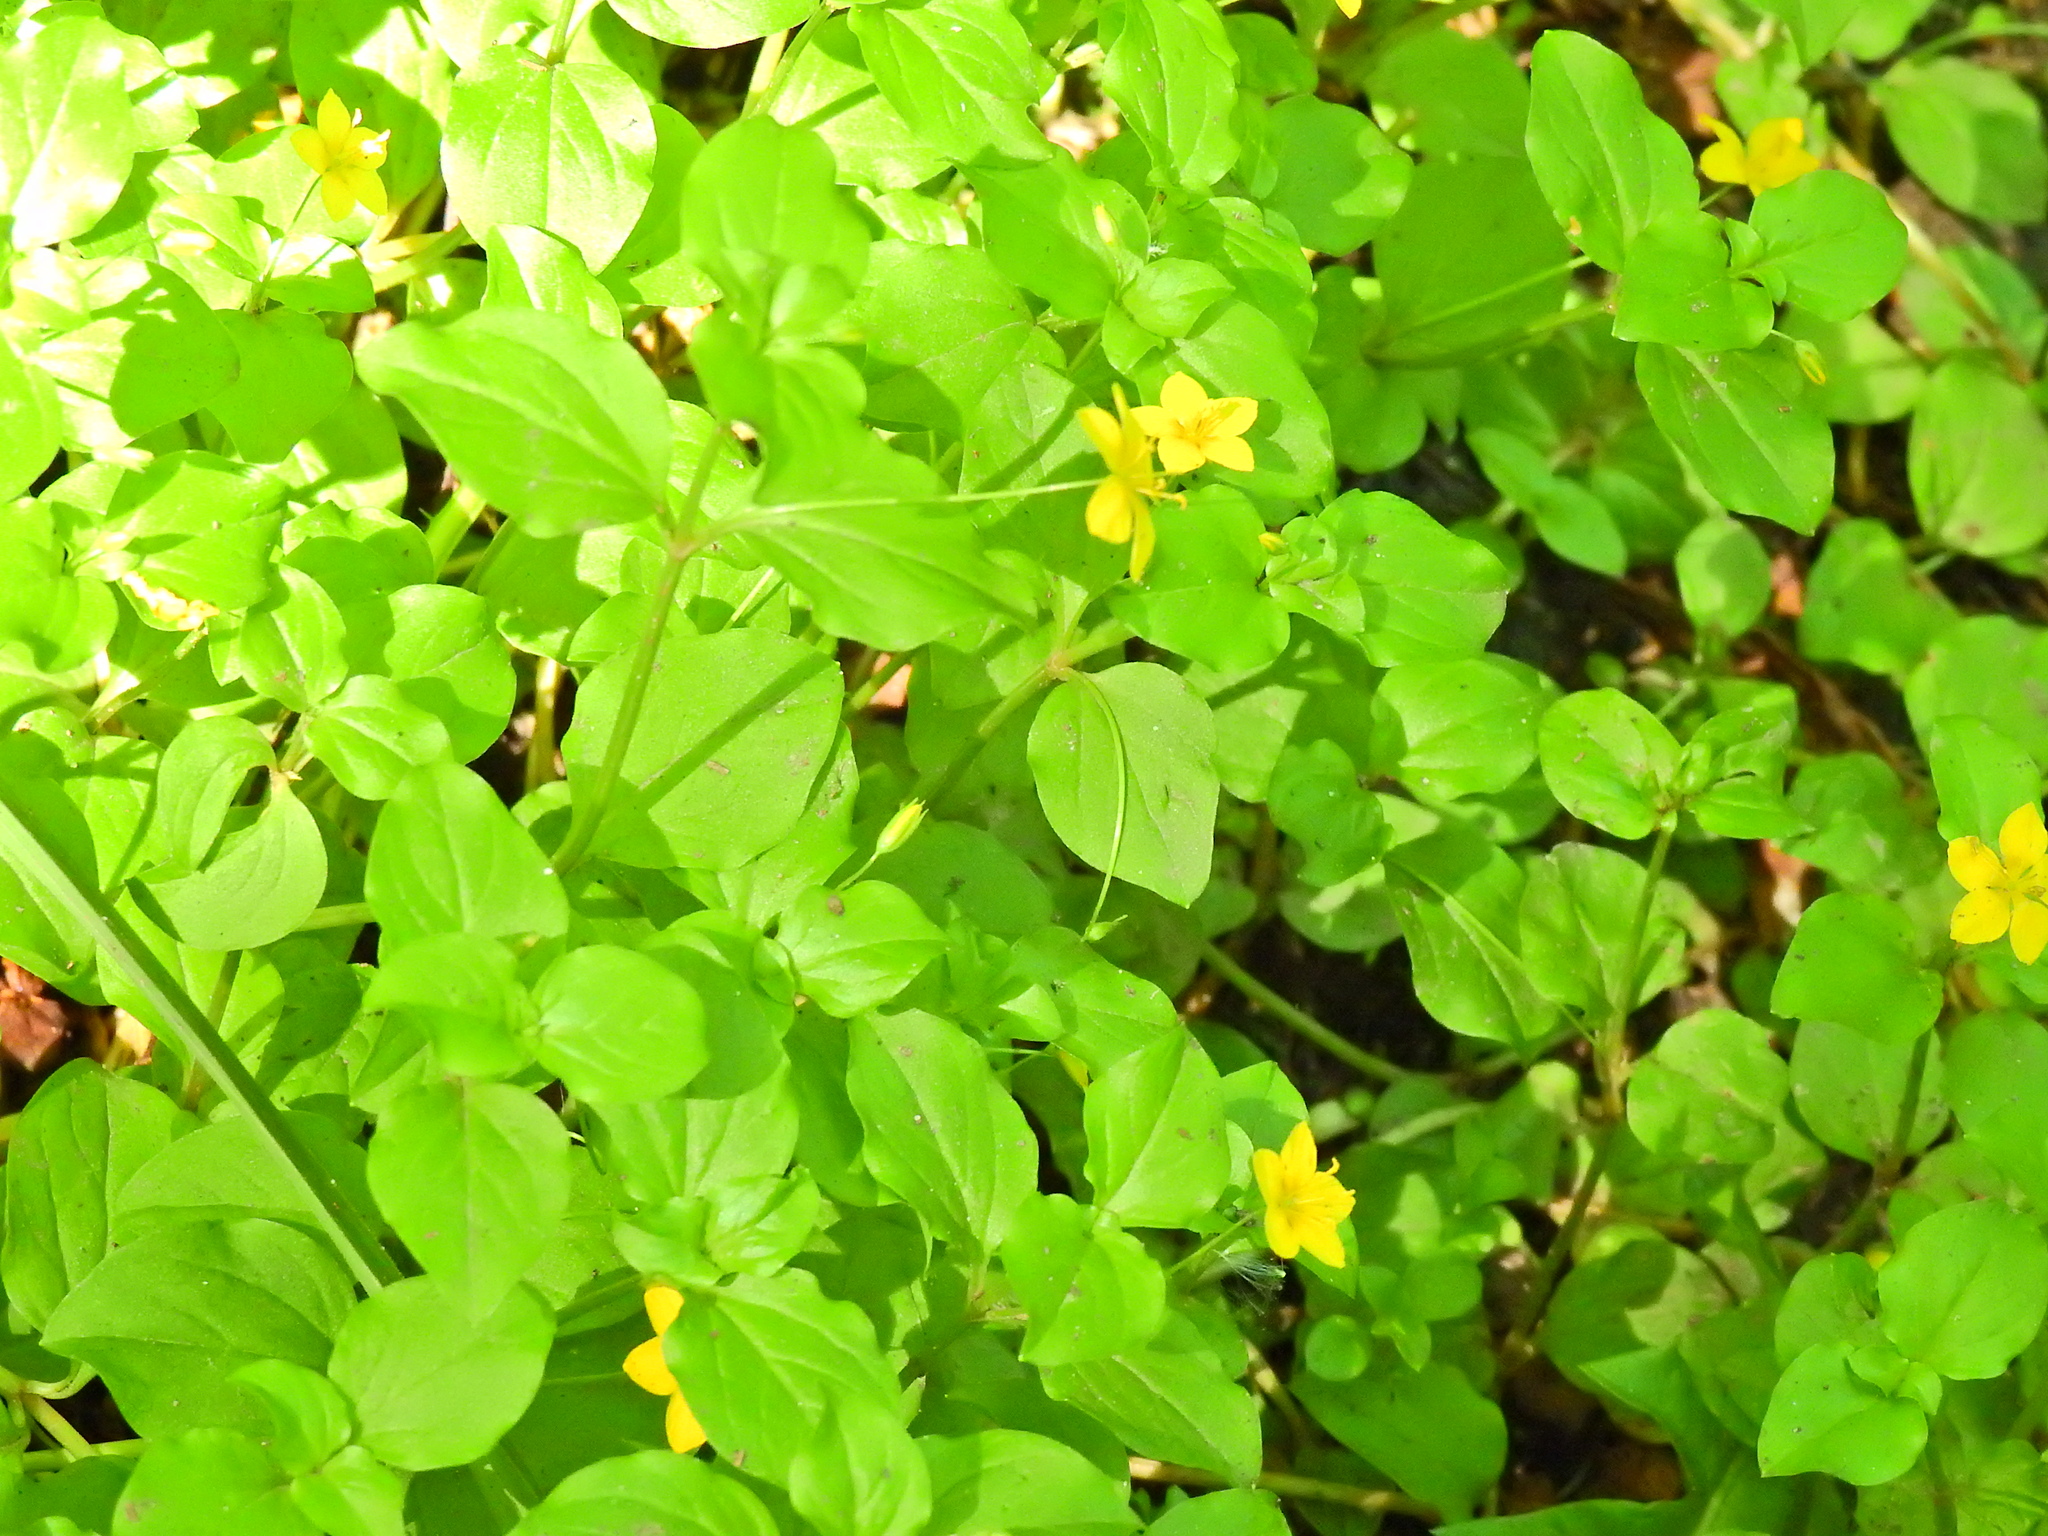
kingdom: Plantae
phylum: Tracheophyta
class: Magnoliopsida
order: Ericales
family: Primulaceae
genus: Lysimachia
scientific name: Lysimachia nemorum
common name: Yellow pimpernel
